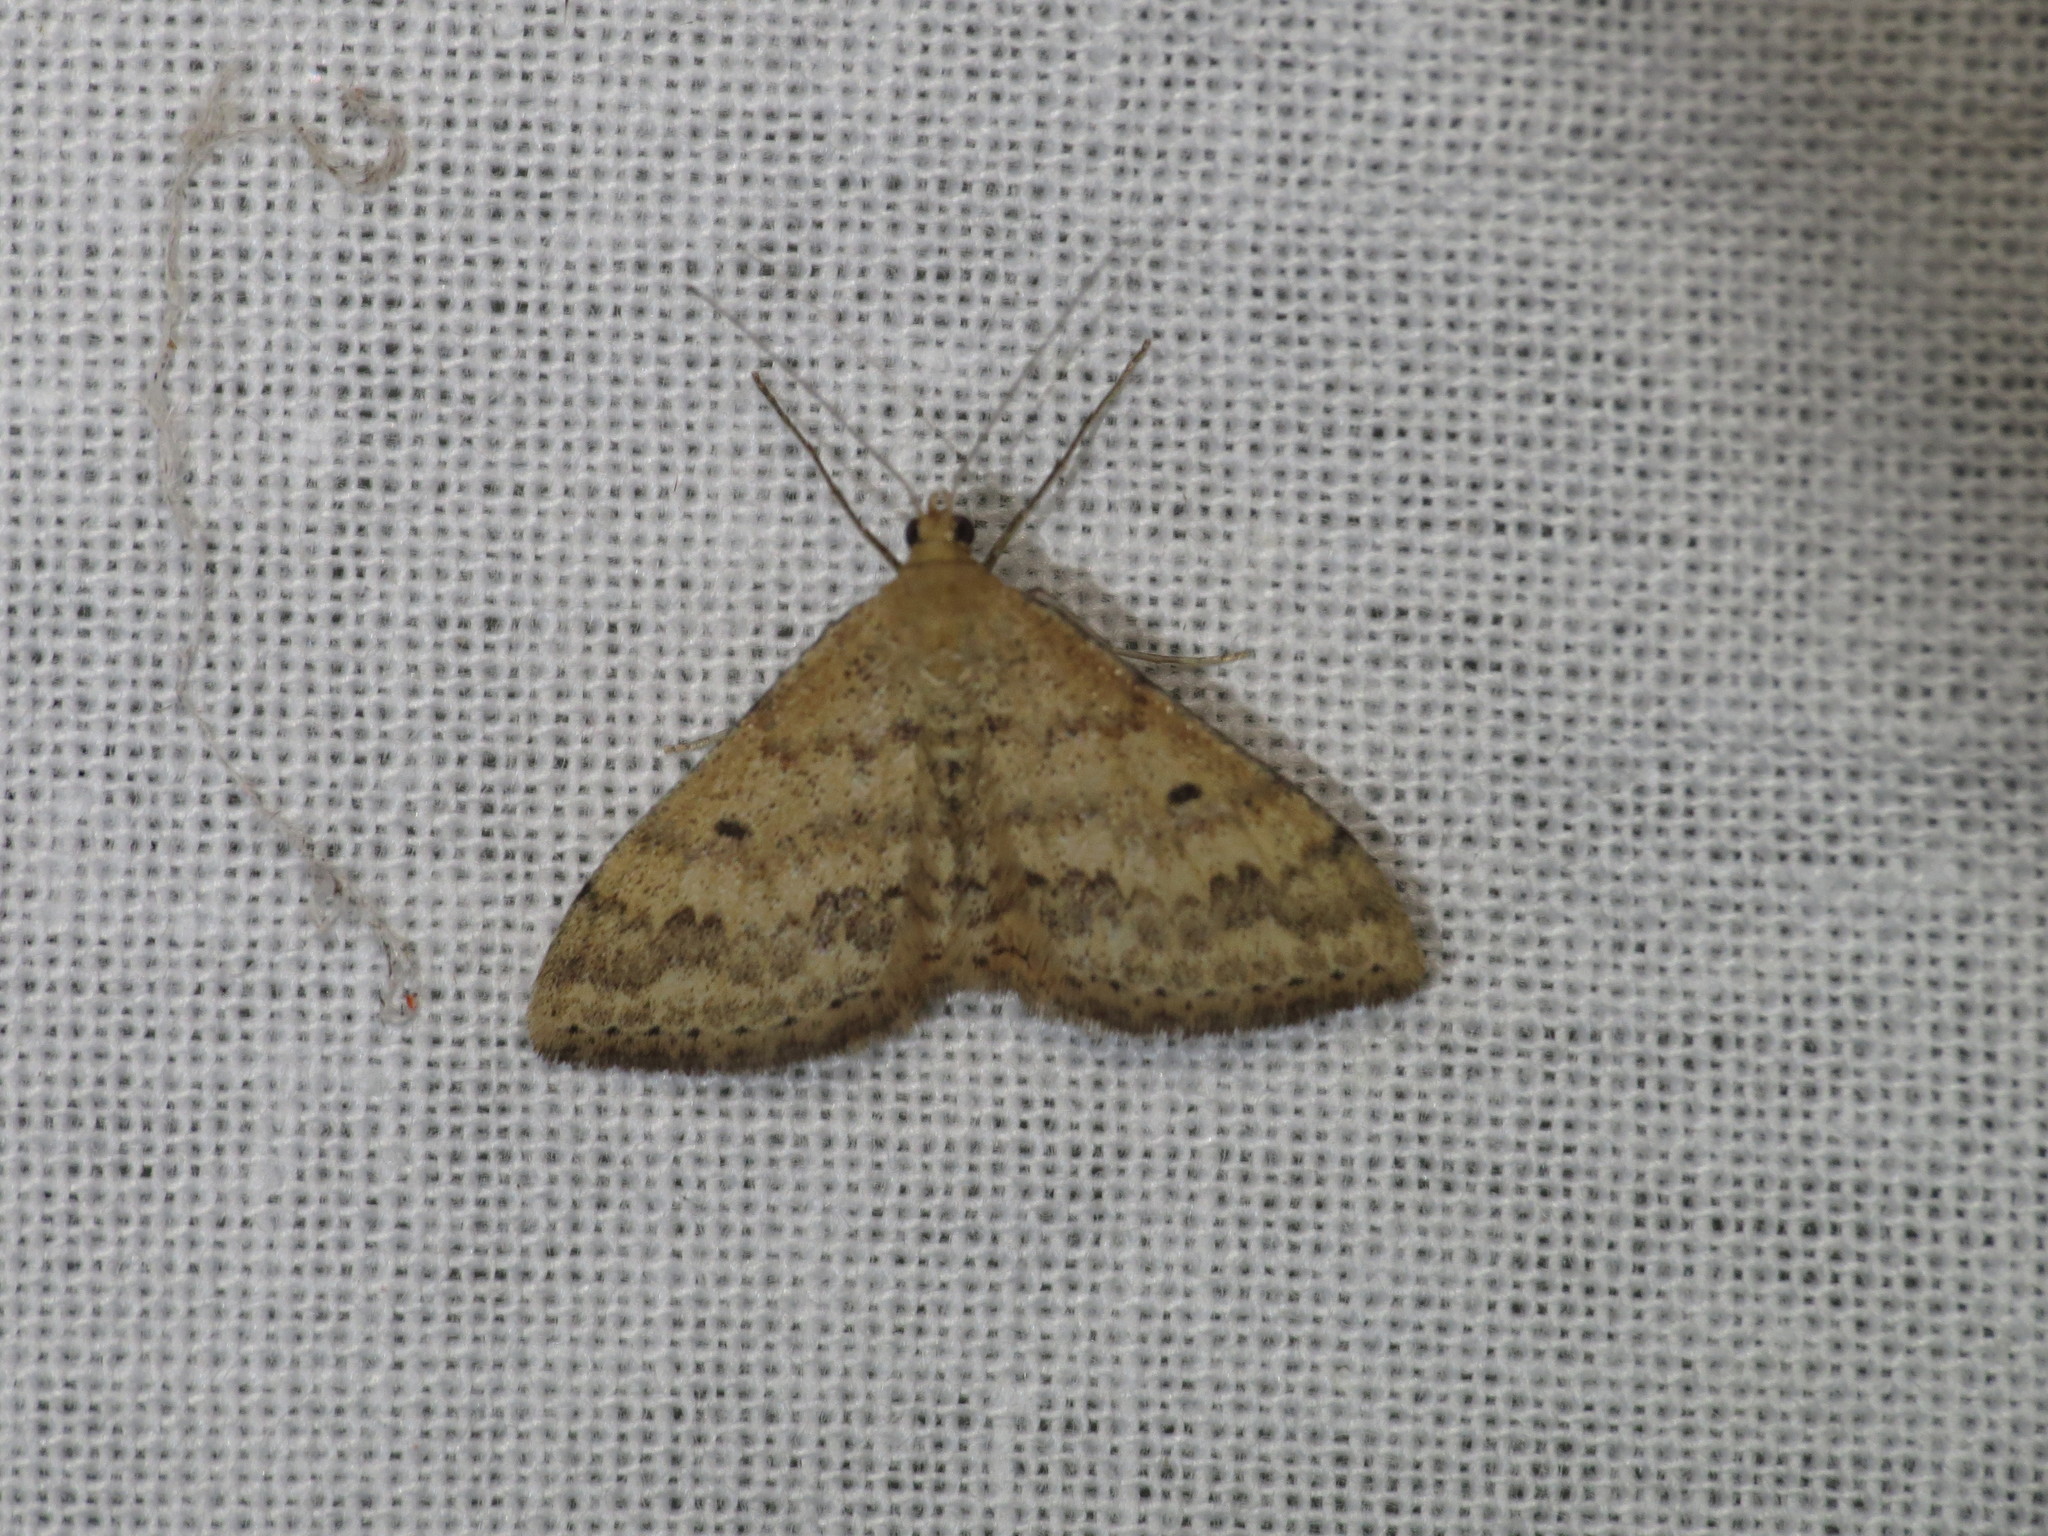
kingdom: Animalia
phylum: Arthropoda
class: Insecta
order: Lepidoptera
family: Geometridae
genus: Scopula
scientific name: Scopula rubraria
